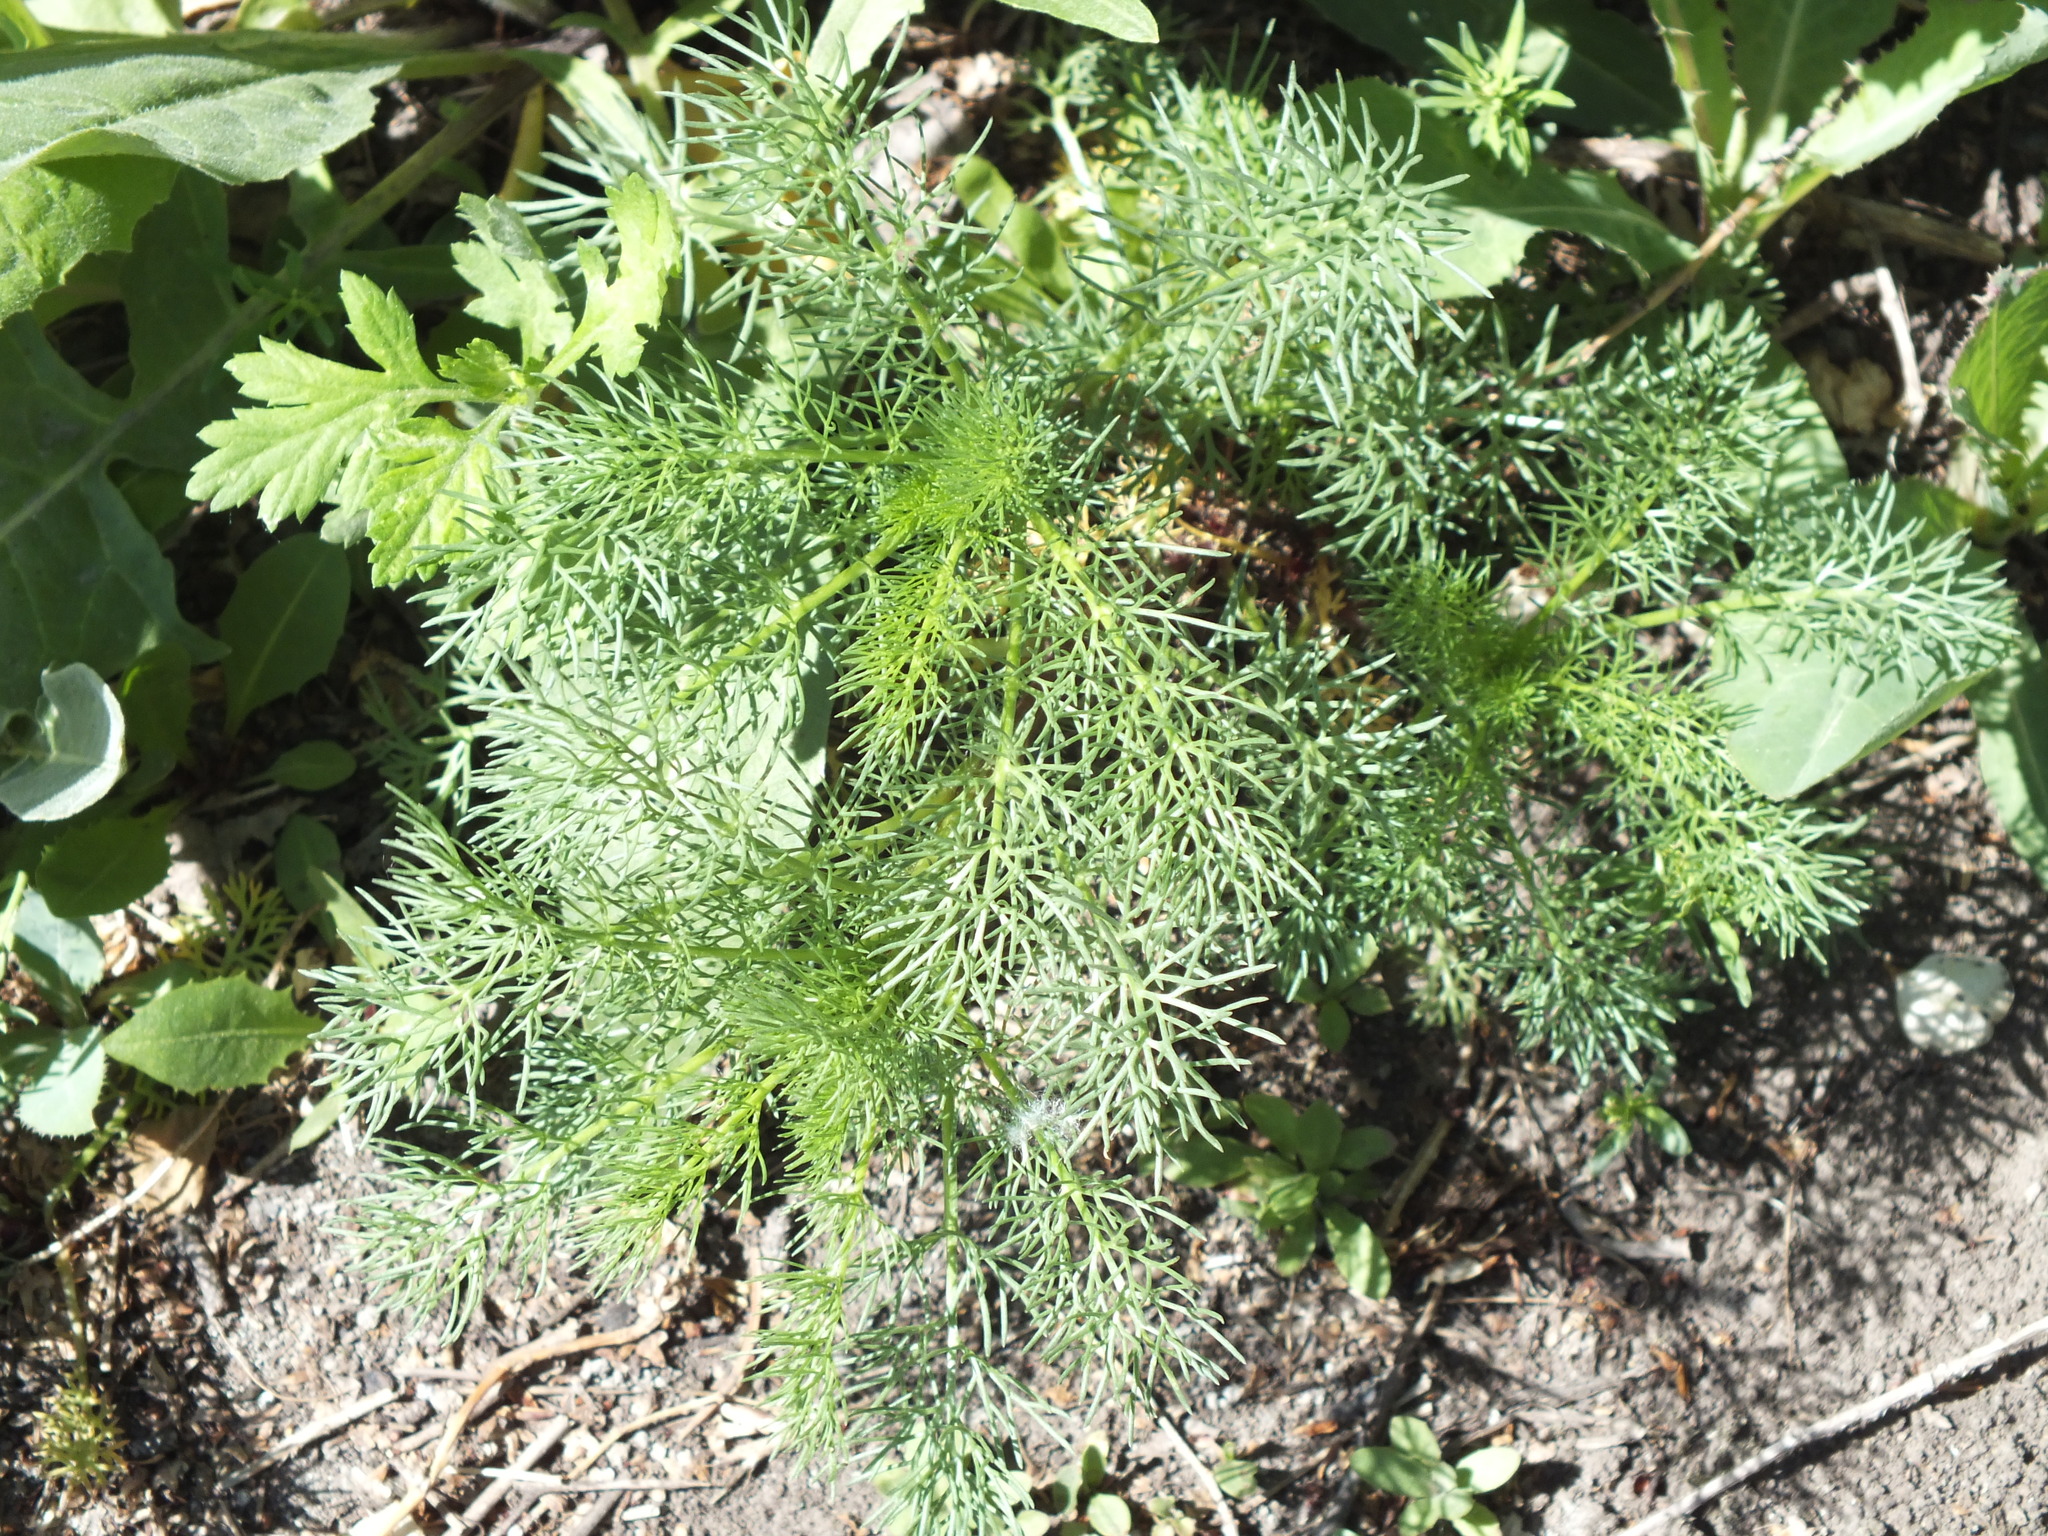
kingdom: Plantae
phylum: Tracheophyta
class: Magnoliopsida
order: Asterales
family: Asteraceae
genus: Tripleurospermum
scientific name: Tripleurospermum inodorum
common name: Scentless mayweed
